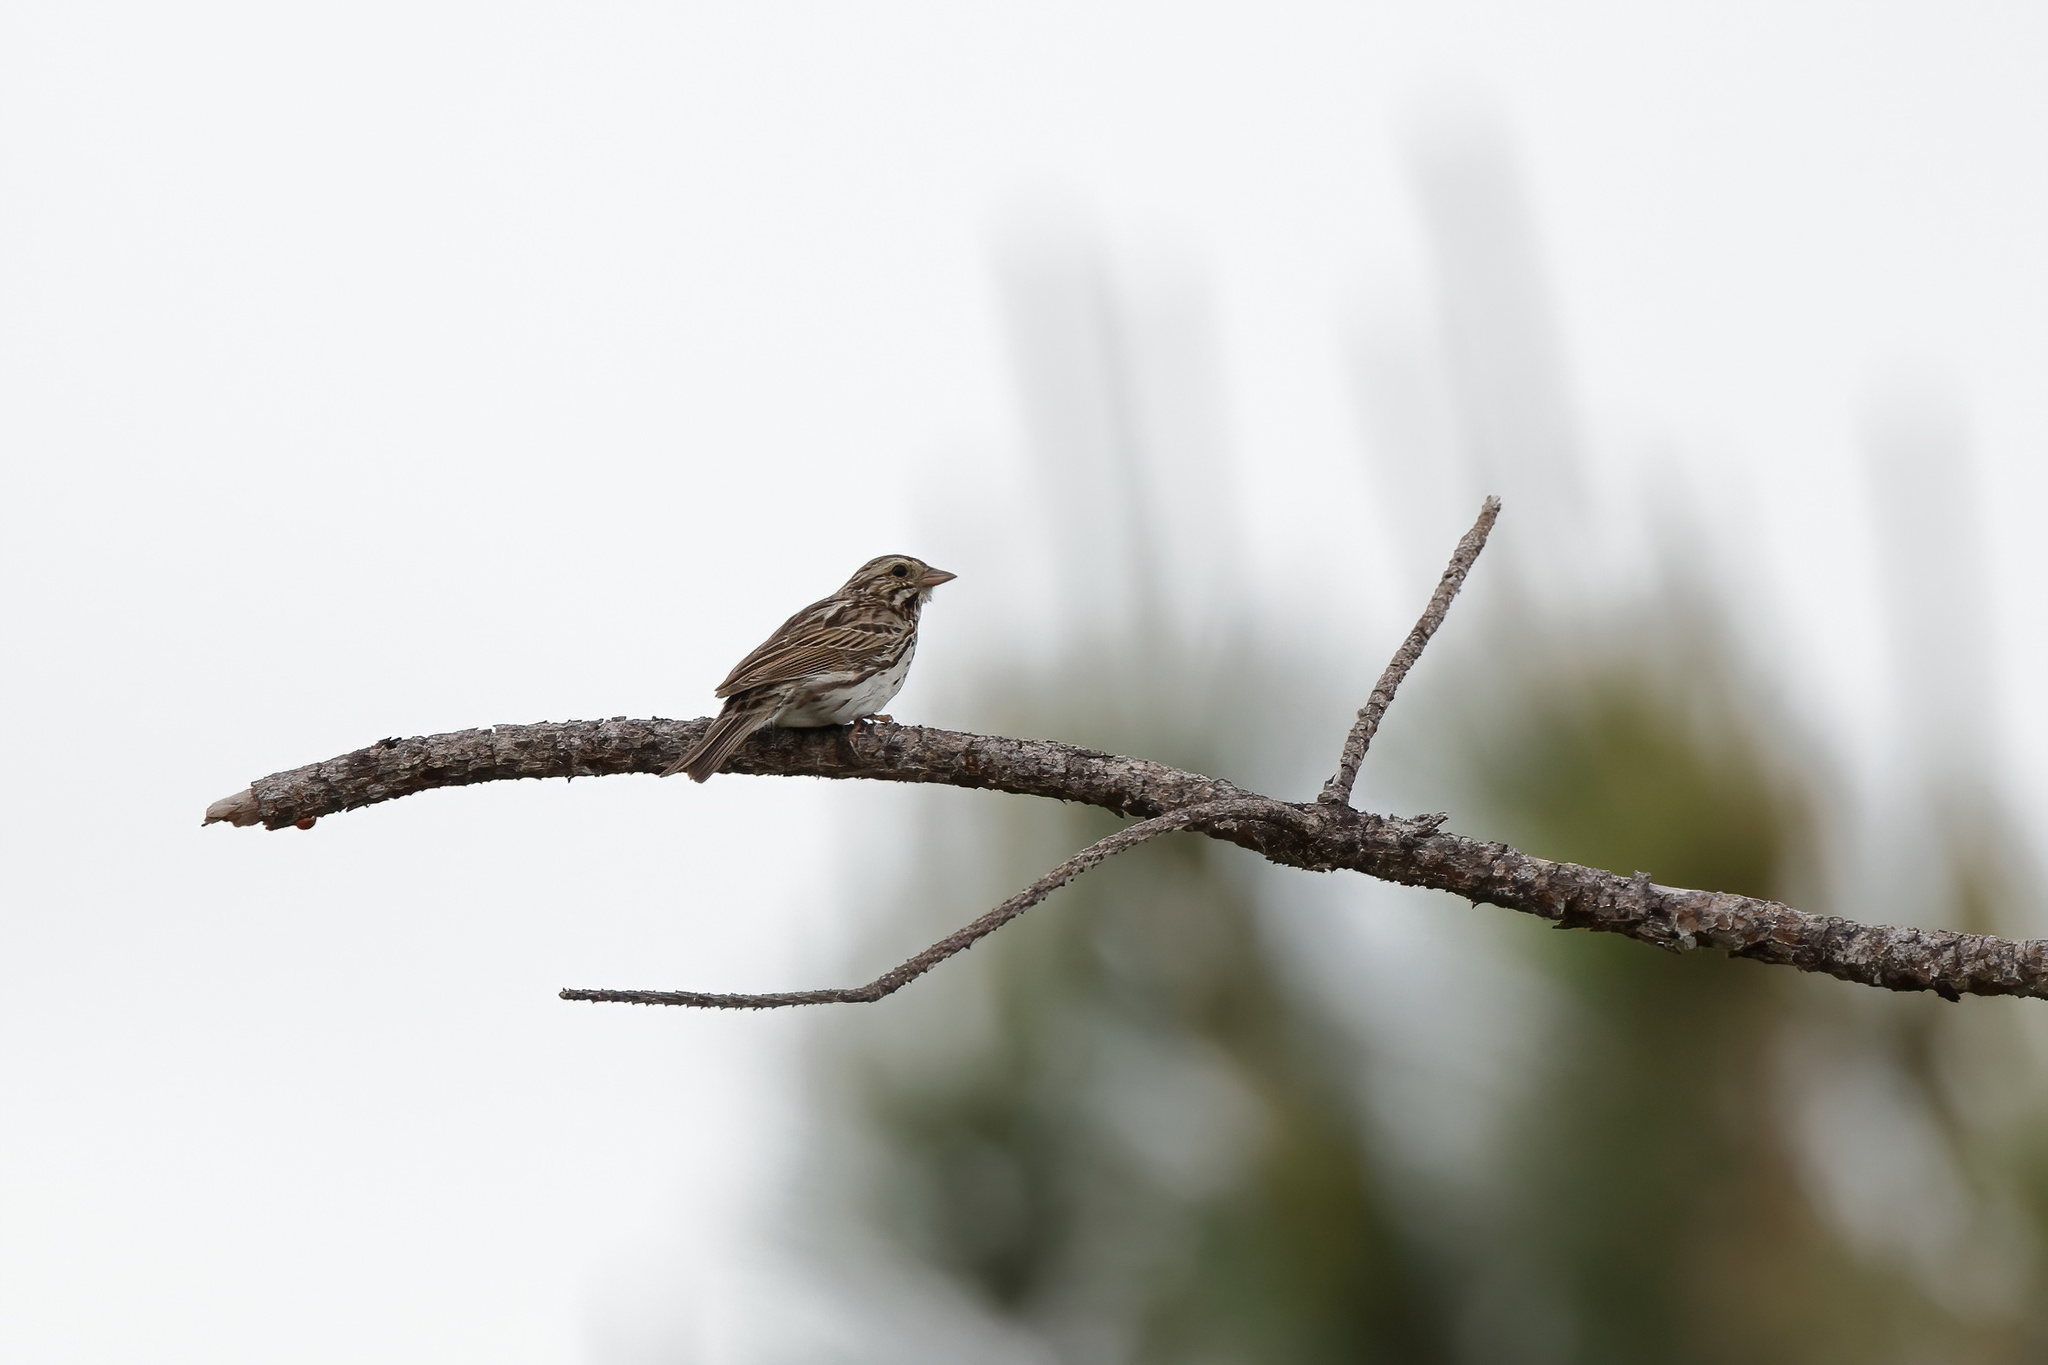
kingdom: Animalia
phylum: Chordata
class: Aves
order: Passeriformes
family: Passerellidae
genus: Passerculus
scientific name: Passerculus sandwichensis
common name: Savannah sparrow
